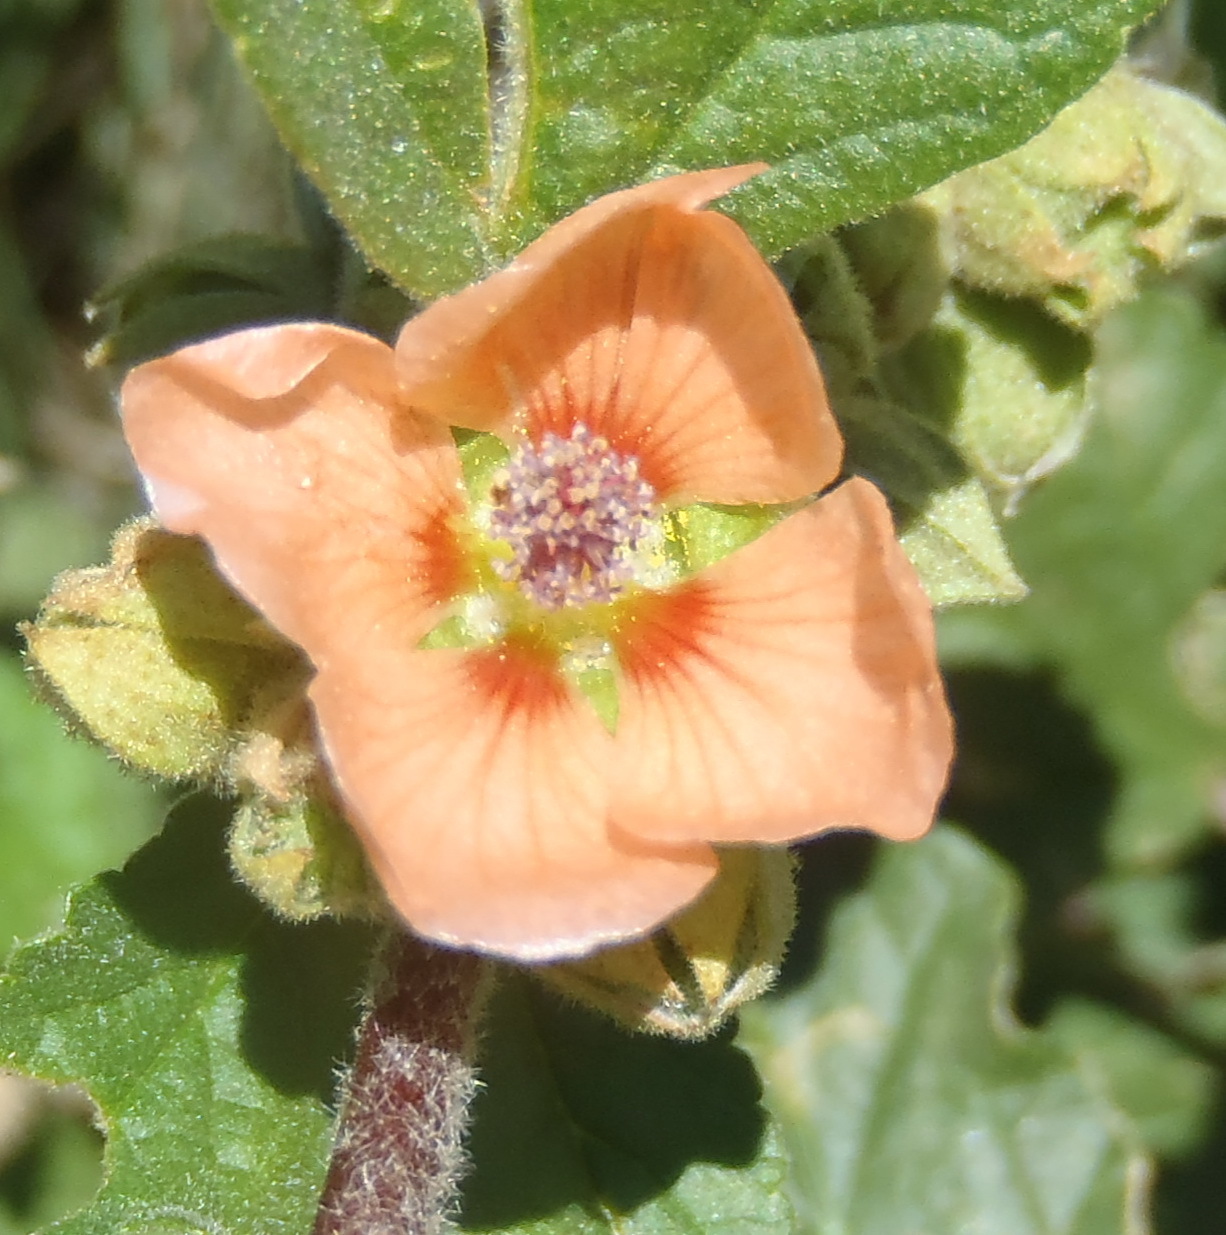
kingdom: Plantae
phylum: Tracheophyta
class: Magnoliopsida
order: Malvales
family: Malvaceae
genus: Sphaeralcea
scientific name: Sphaeralcea bonariensis
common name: Latin globemallow
